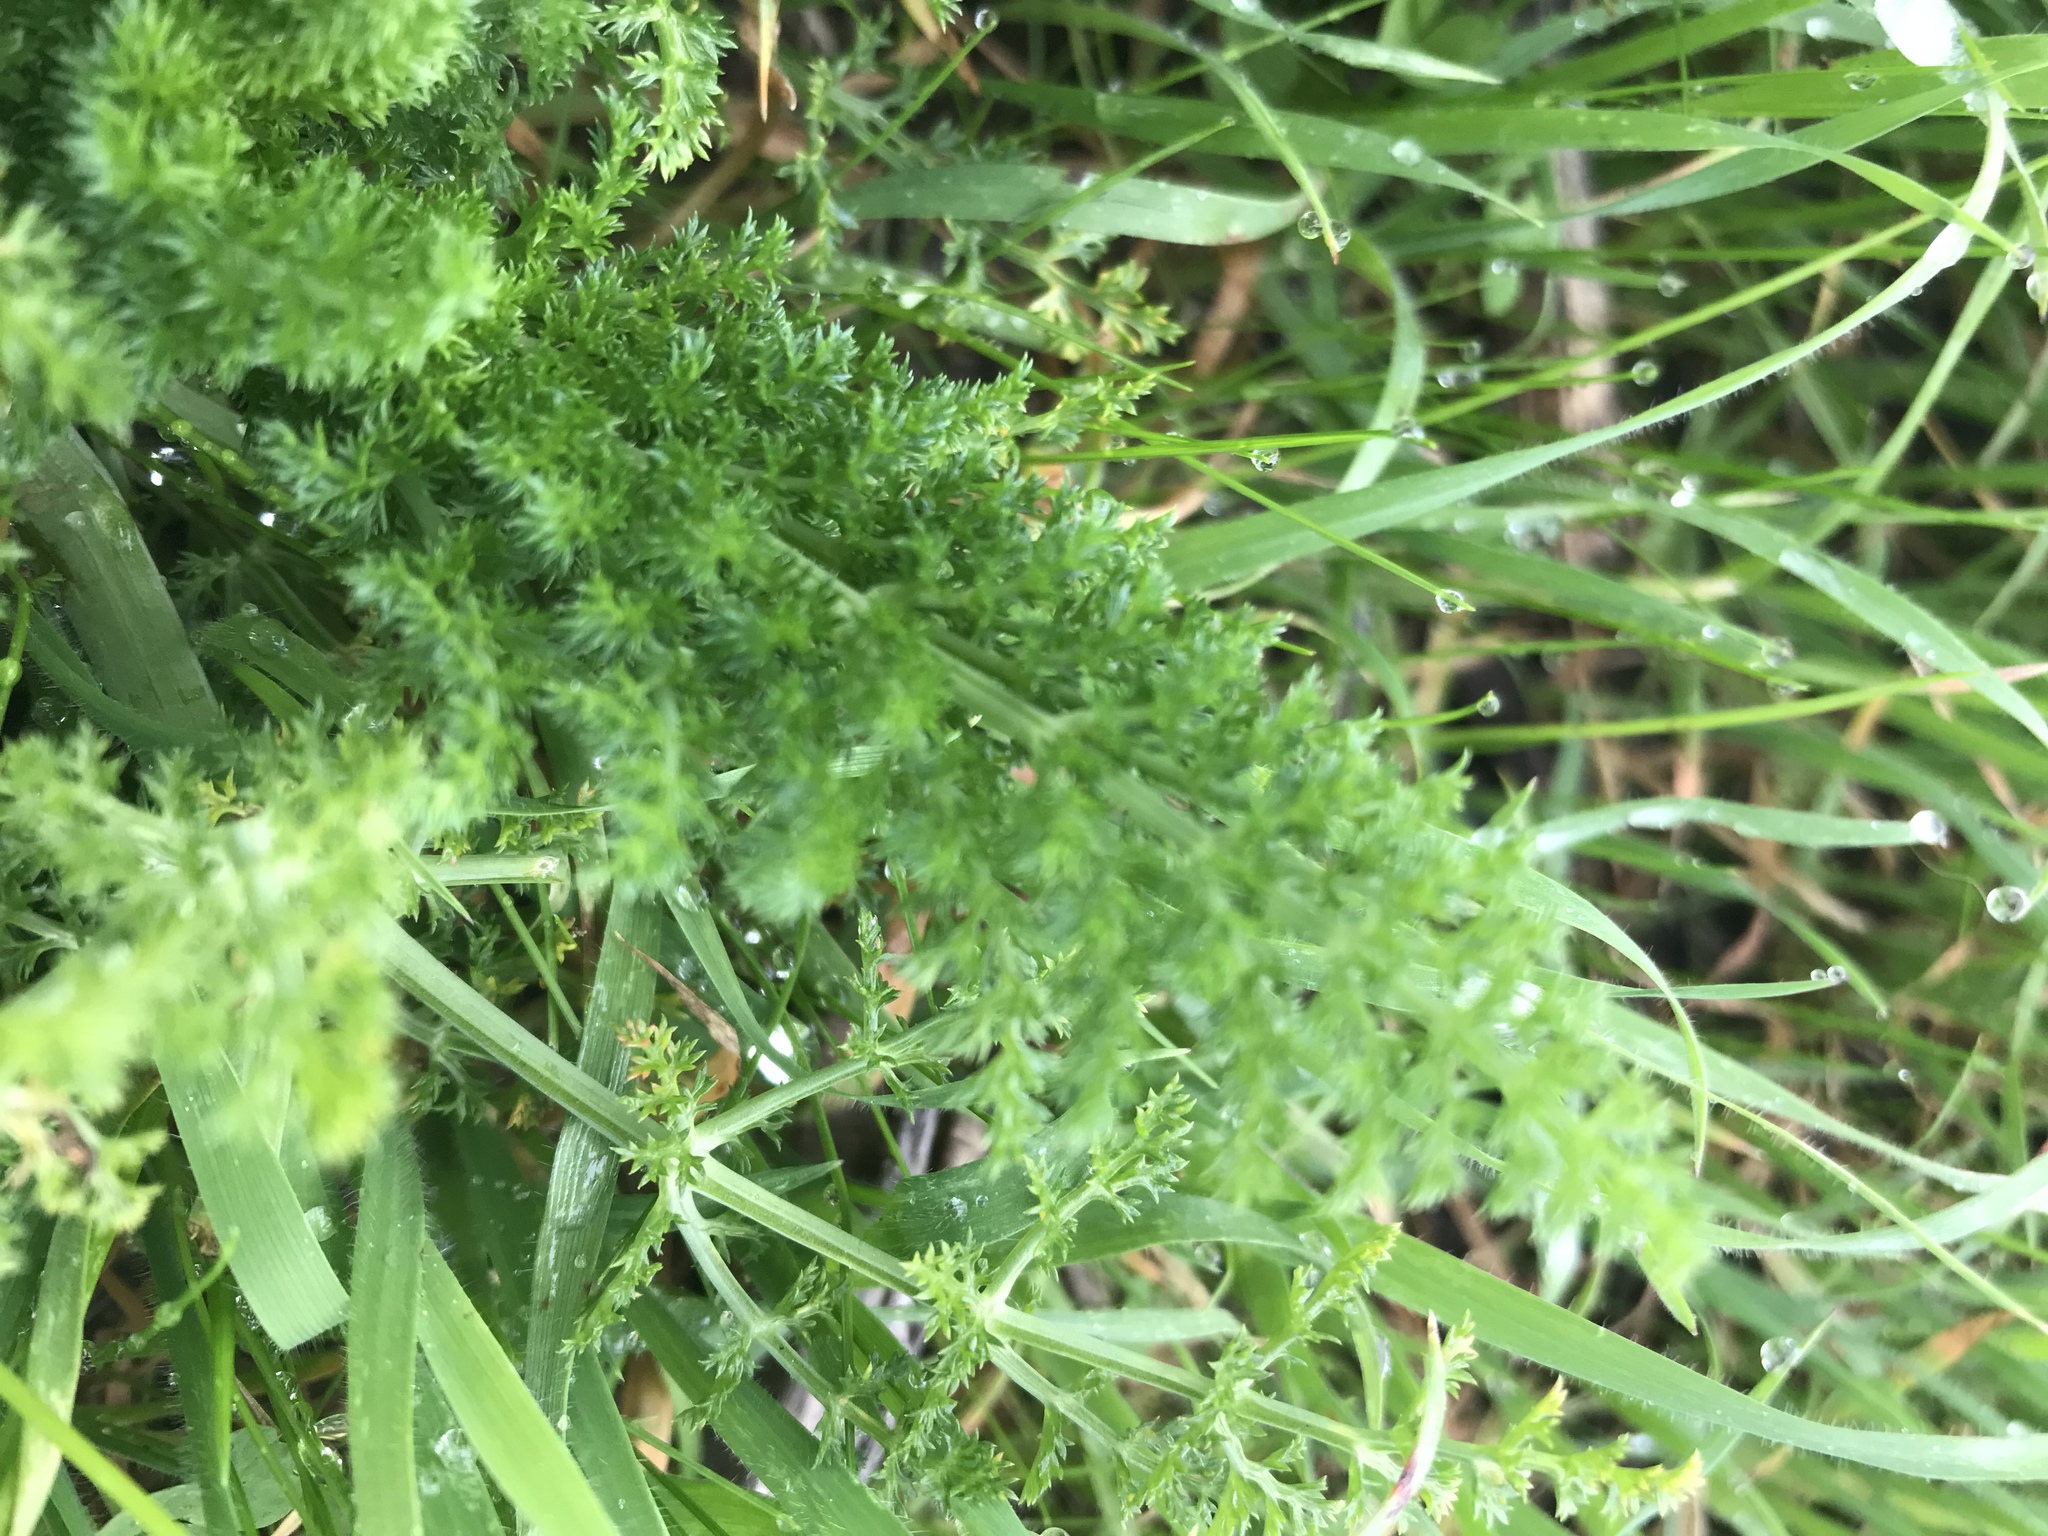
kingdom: Plantae
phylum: Tracheophyta
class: Magnoliopsida
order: Apiales
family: Apiaceae
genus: Foeniculum
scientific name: Foeniculum vulgare
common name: Fennel
